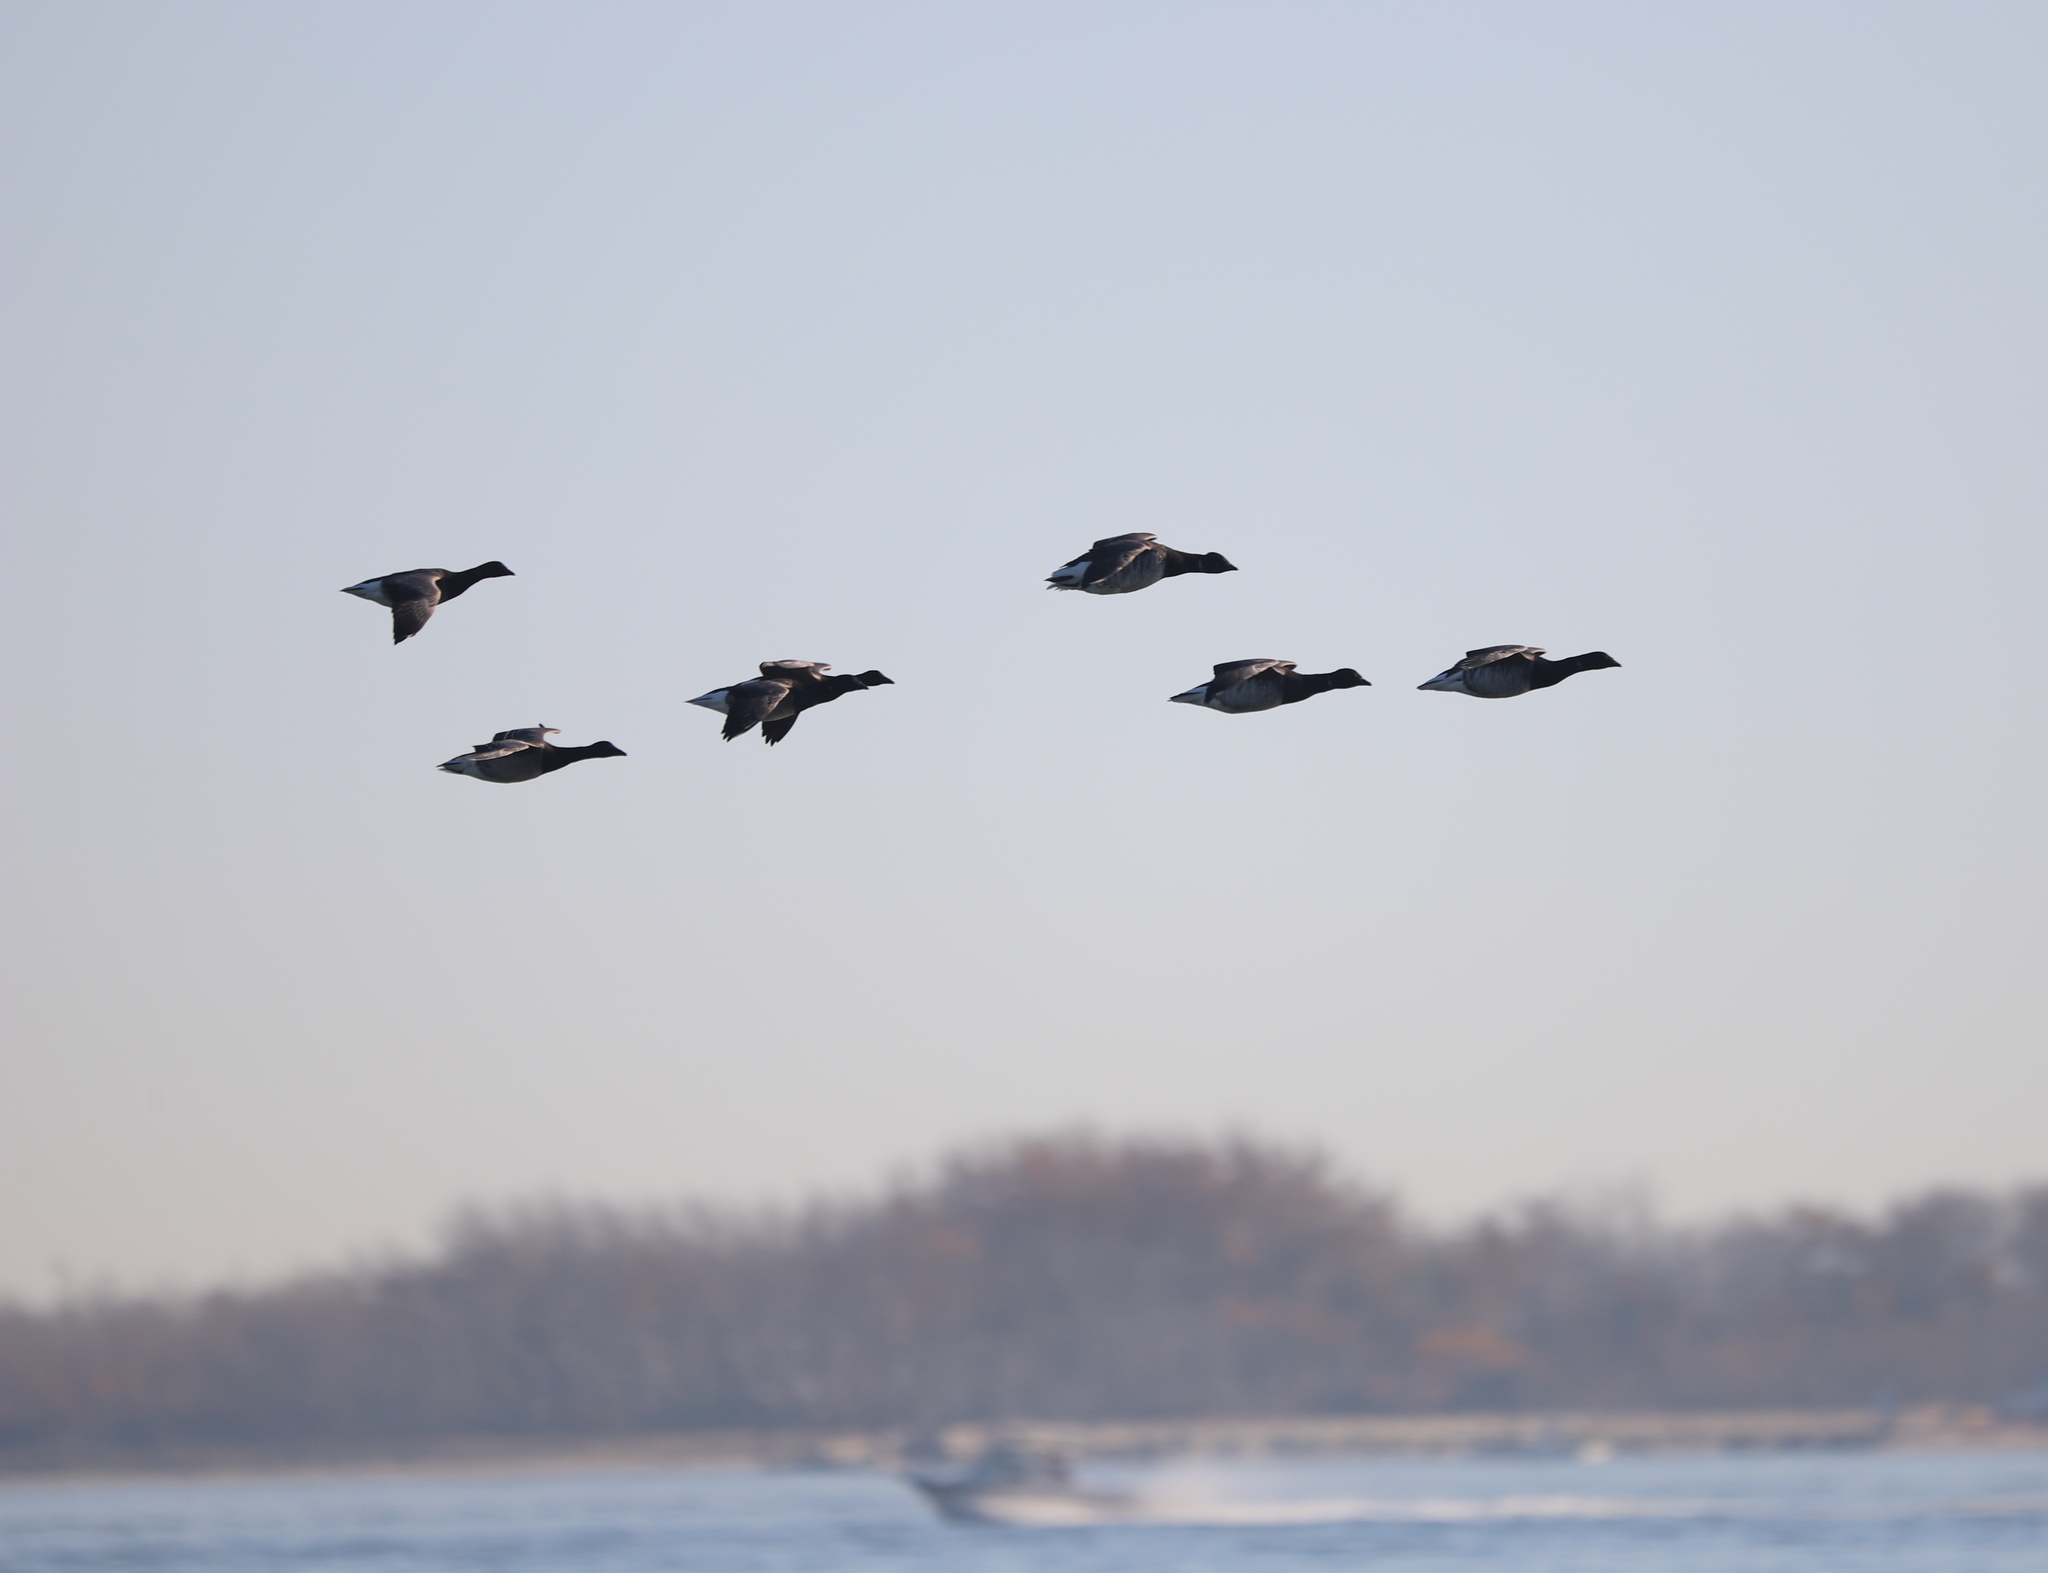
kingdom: Animalia
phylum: Chordata
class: Aves
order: Anseriformes
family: Anatidae
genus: Branta
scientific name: Branta bernicla
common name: Brant goose
